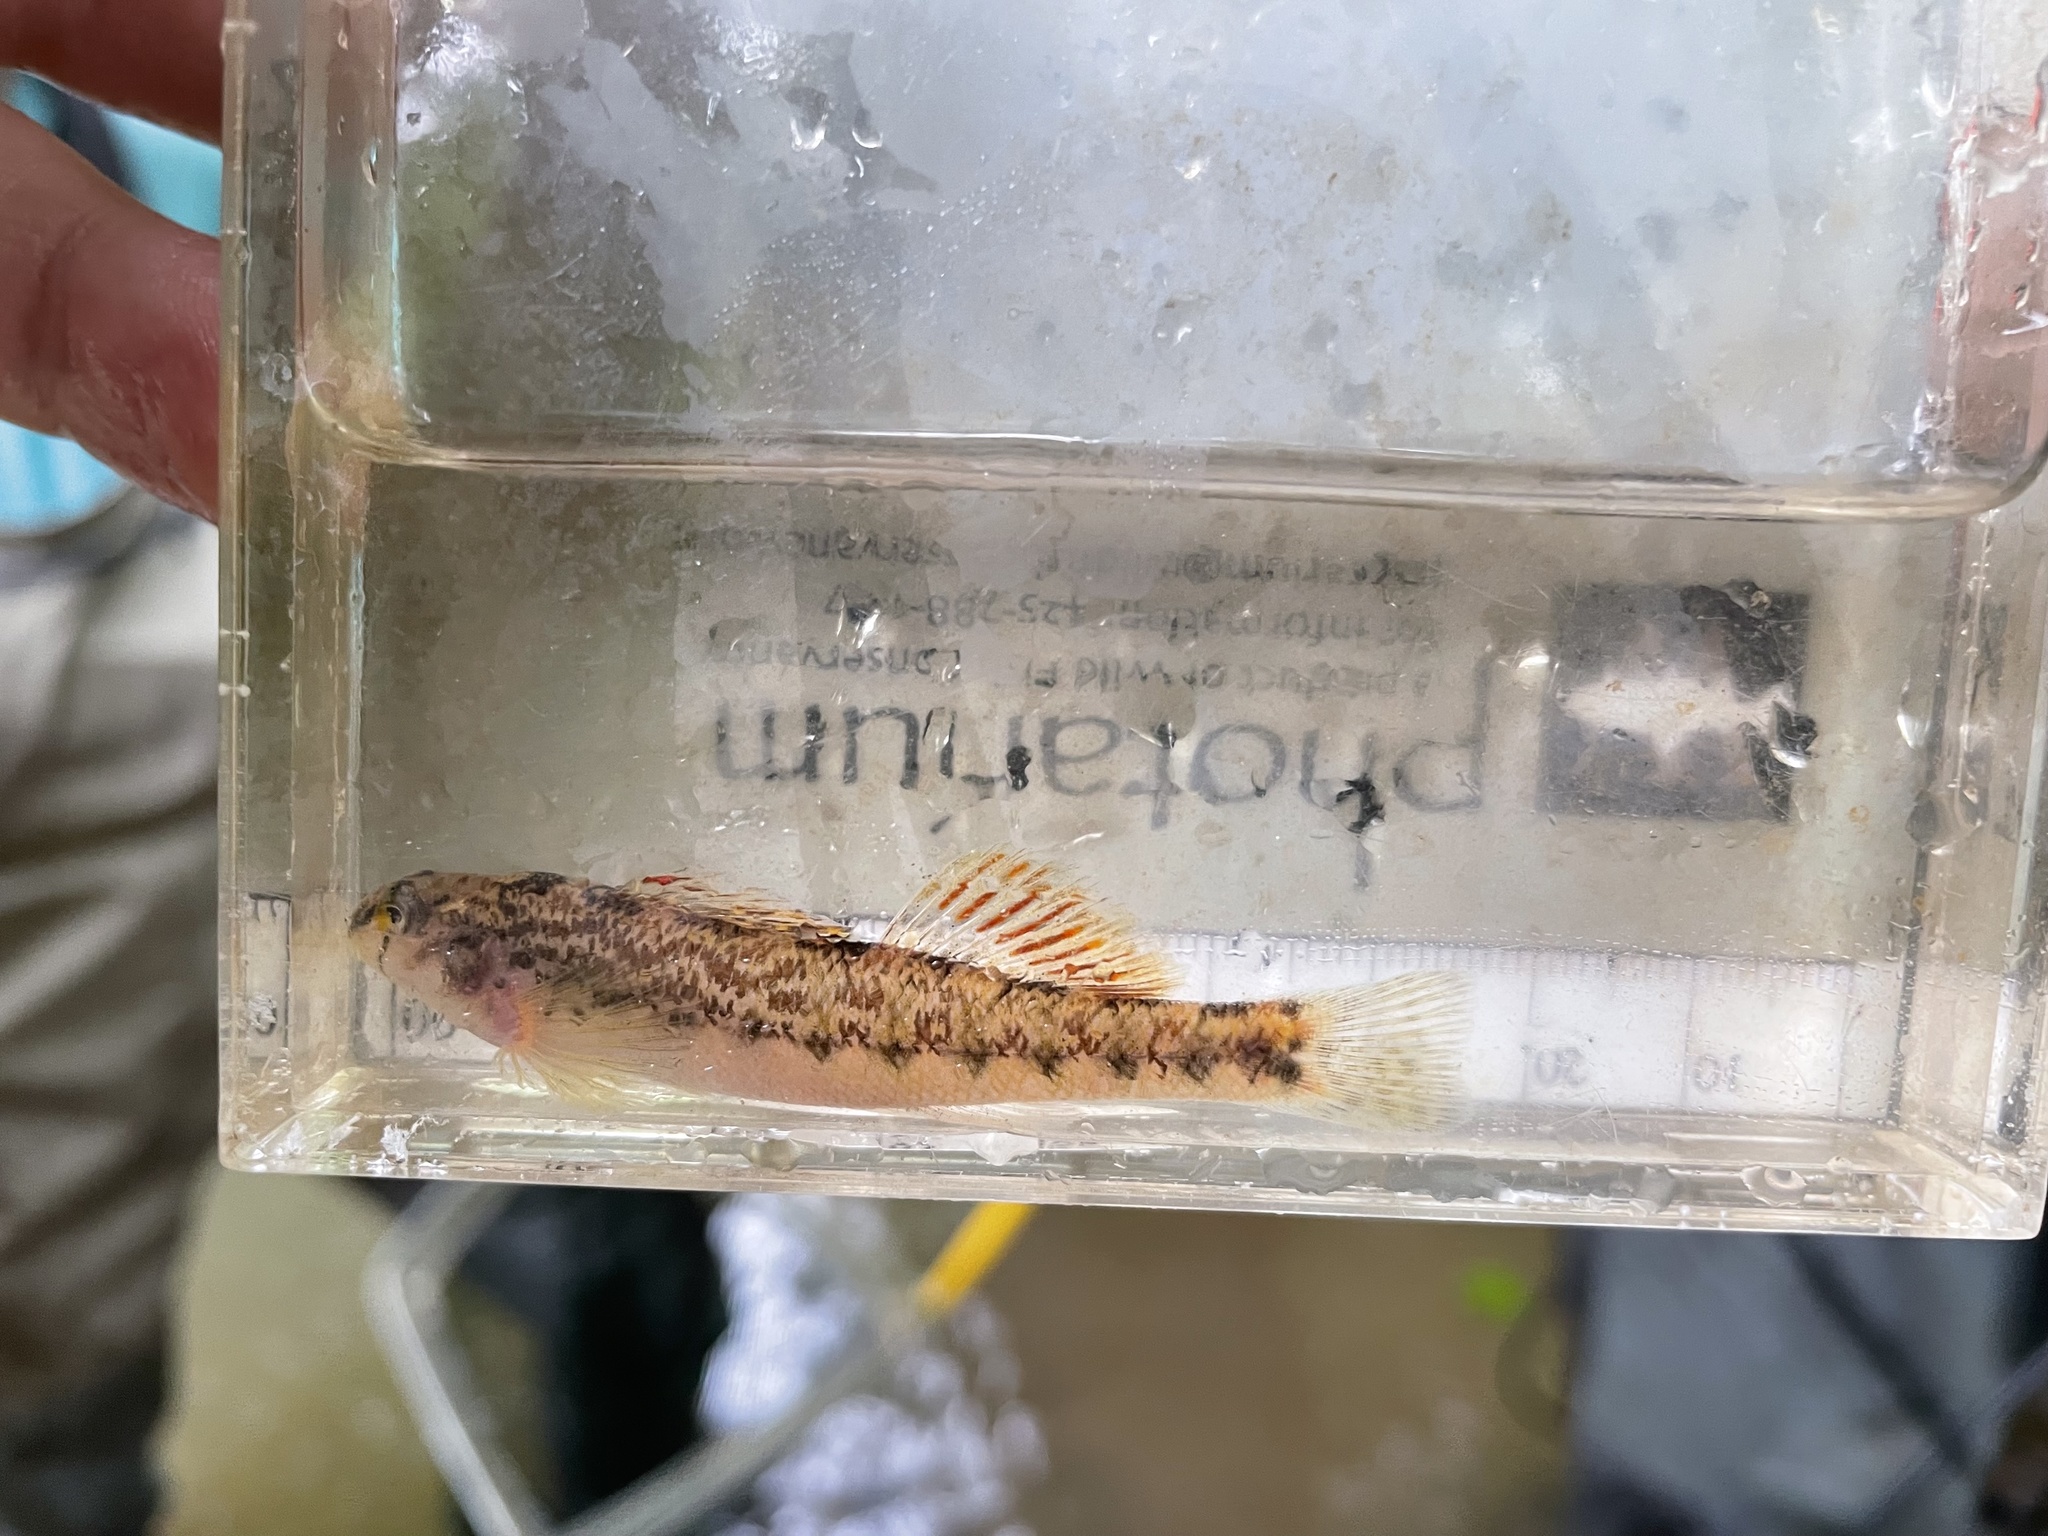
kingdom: Animalia
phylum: Chordata
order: Perciformes
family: Percidae
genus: Etheostoma
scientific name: Etheostoma coosae
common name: Coosa darter
